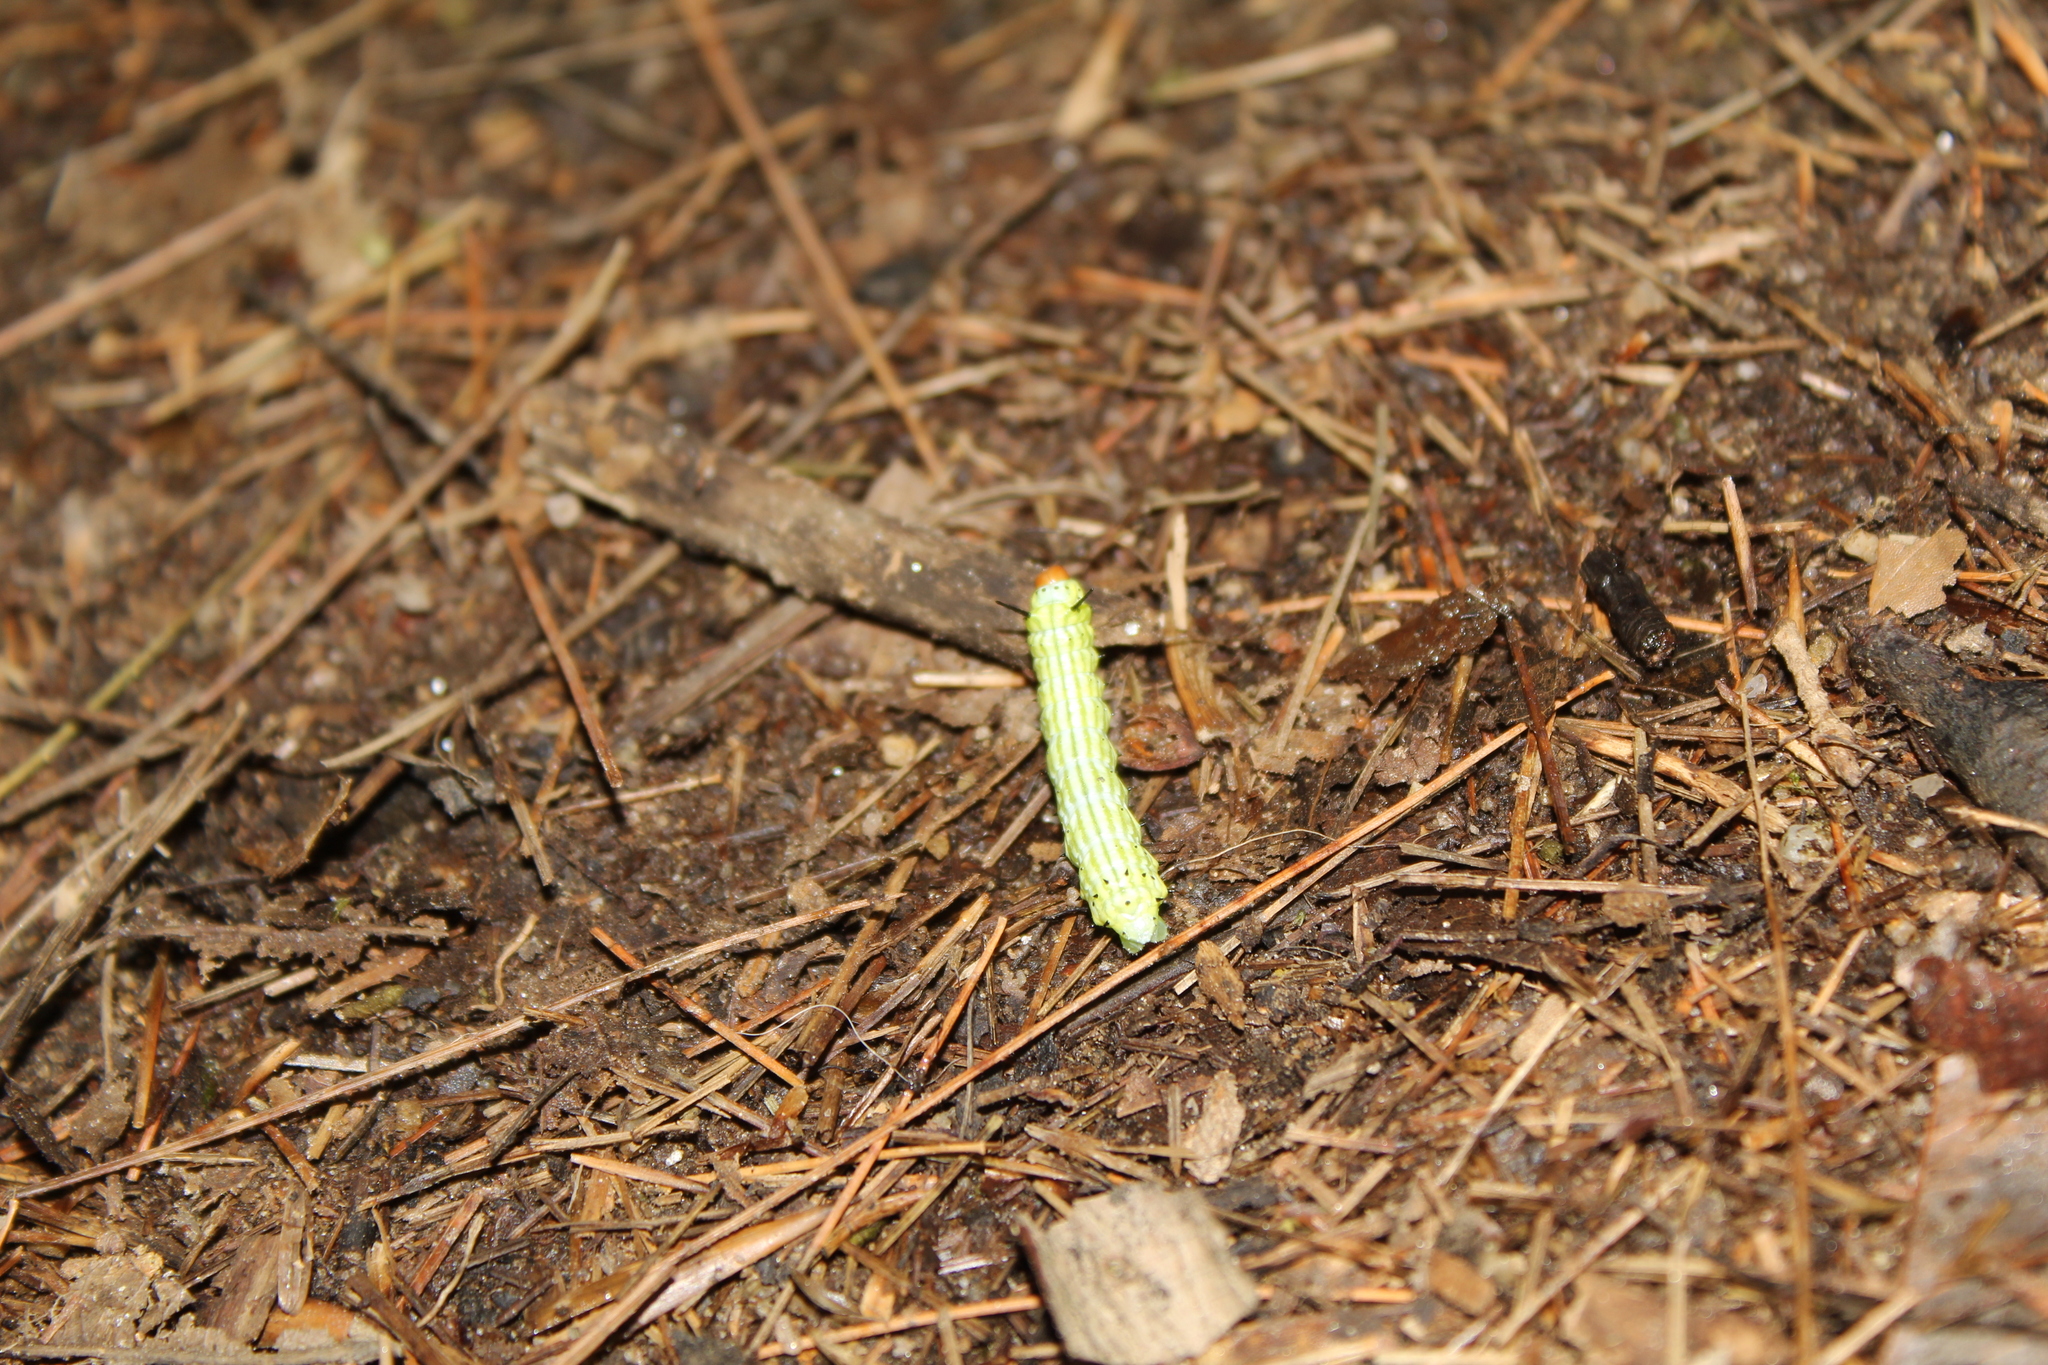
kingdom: Animalia
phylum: Arthropoda
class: Insecta
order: Lepidoptera
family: Saturniidae
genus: Dryocampa
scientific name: Dryocampa rubicunda
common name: Rosy maple moth
